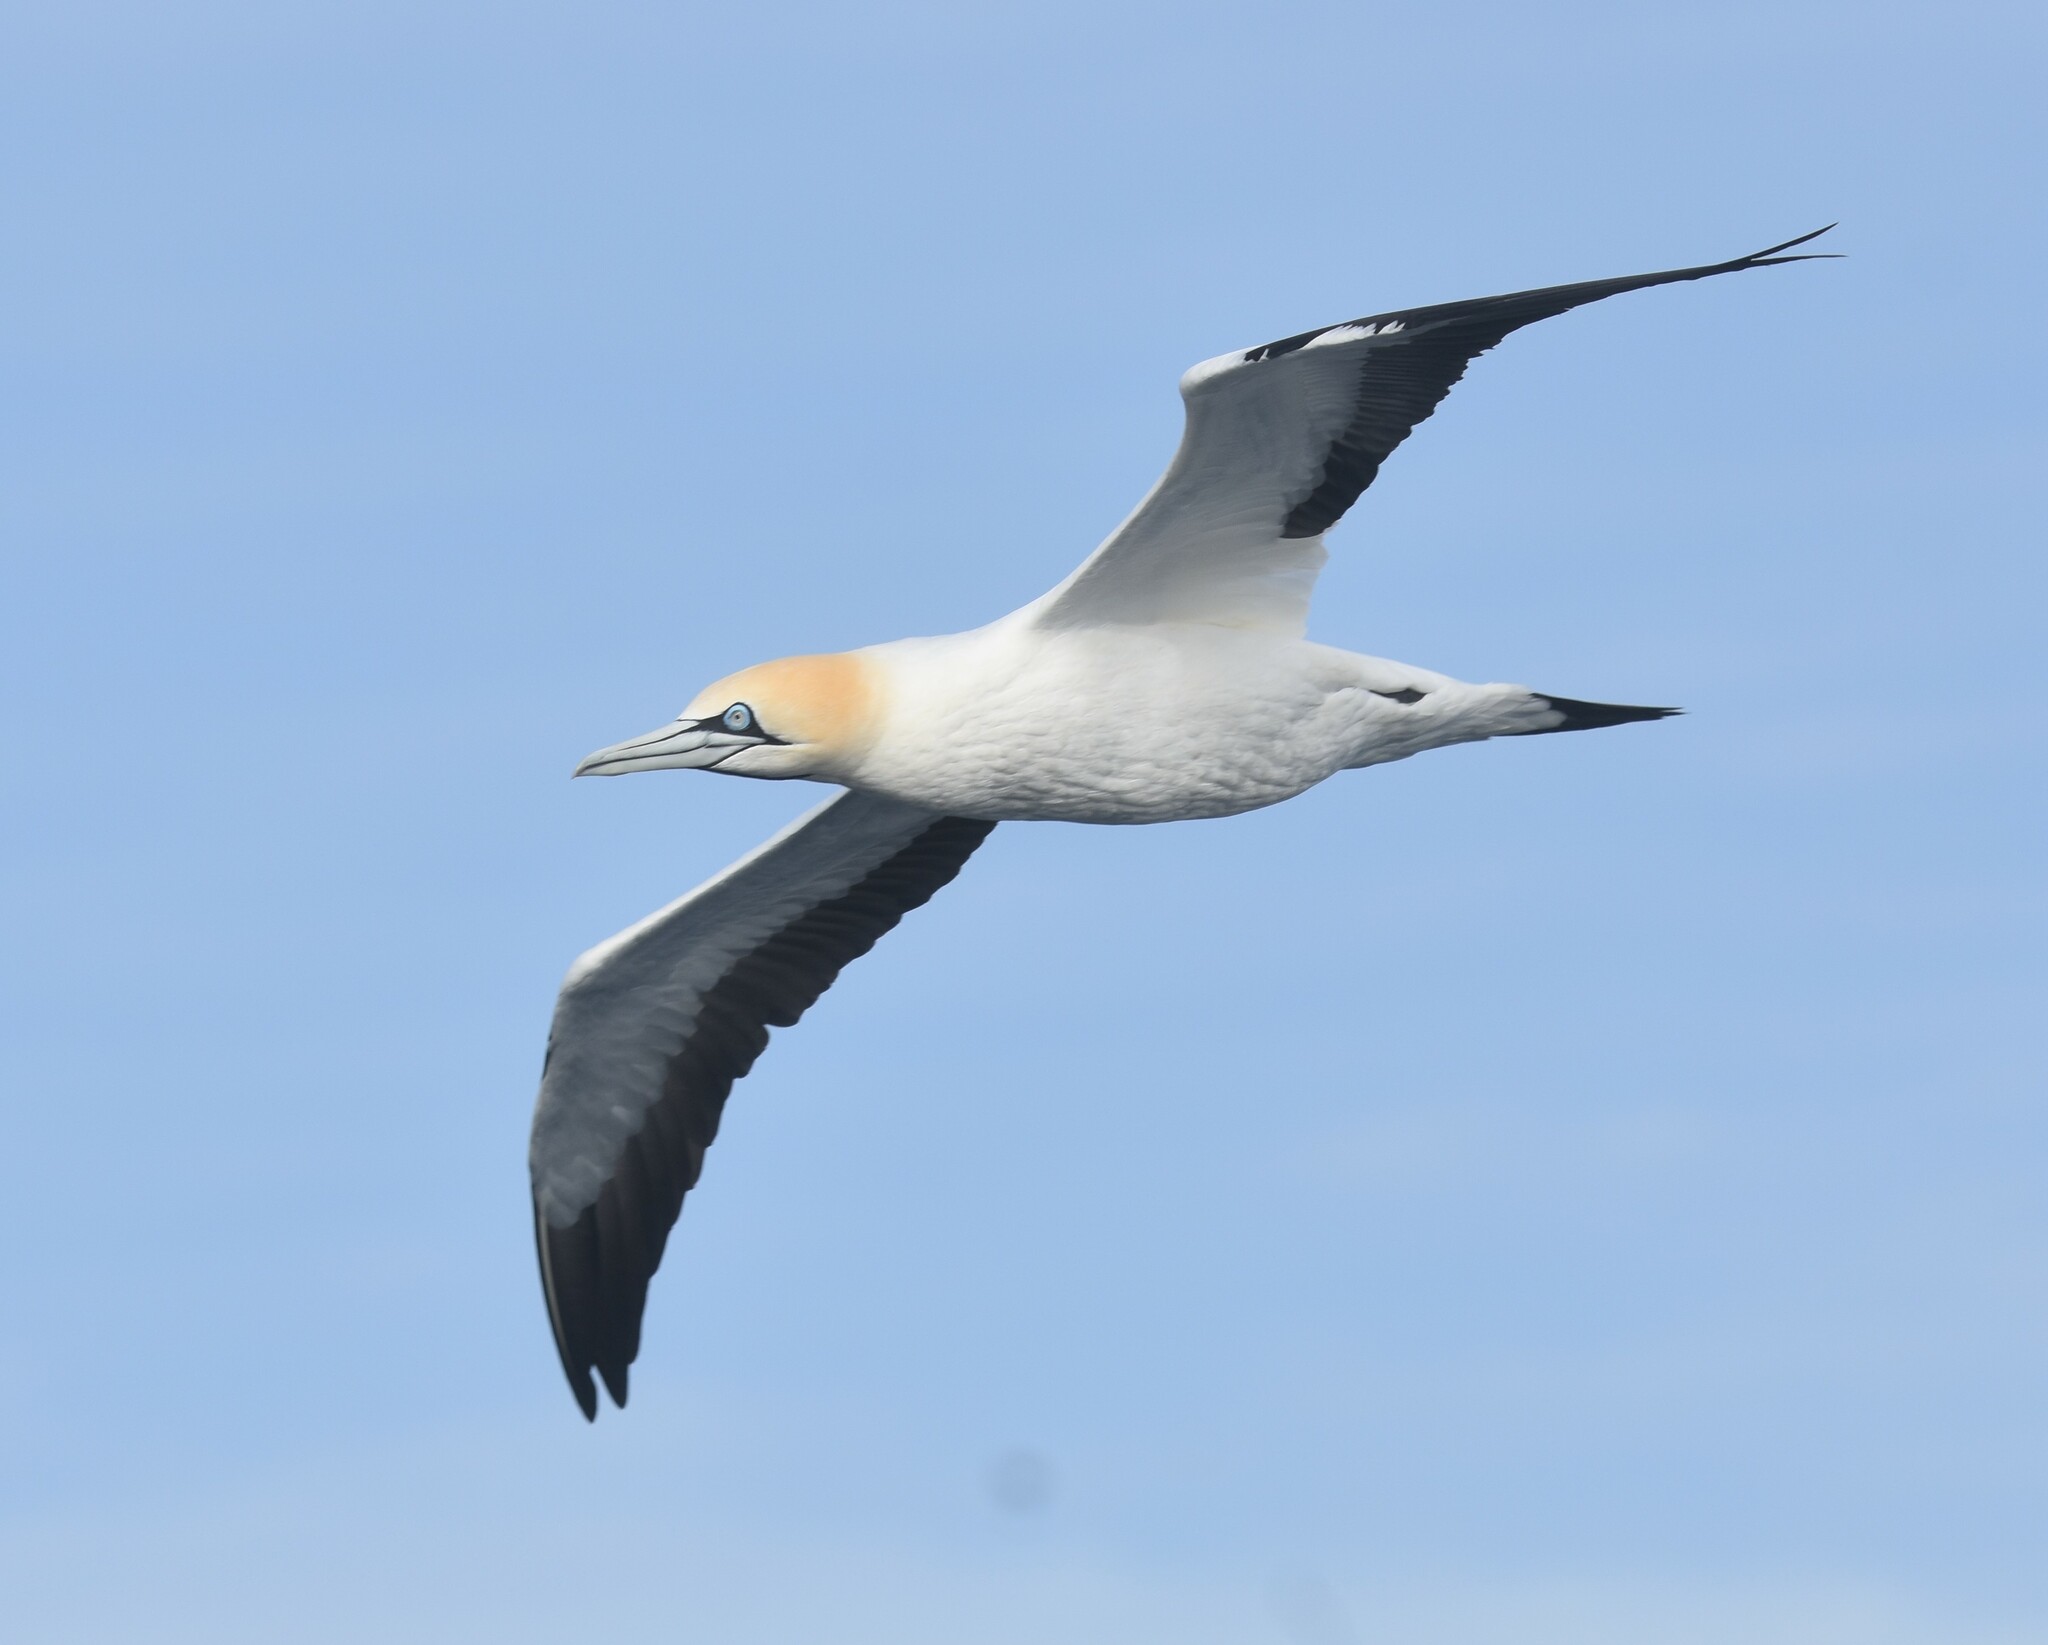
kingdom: Animalia
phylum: Chordata
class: Aves
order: Suliformes
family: Sulidae
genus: Morus
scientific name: Morus capensis
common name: Cape gannet
